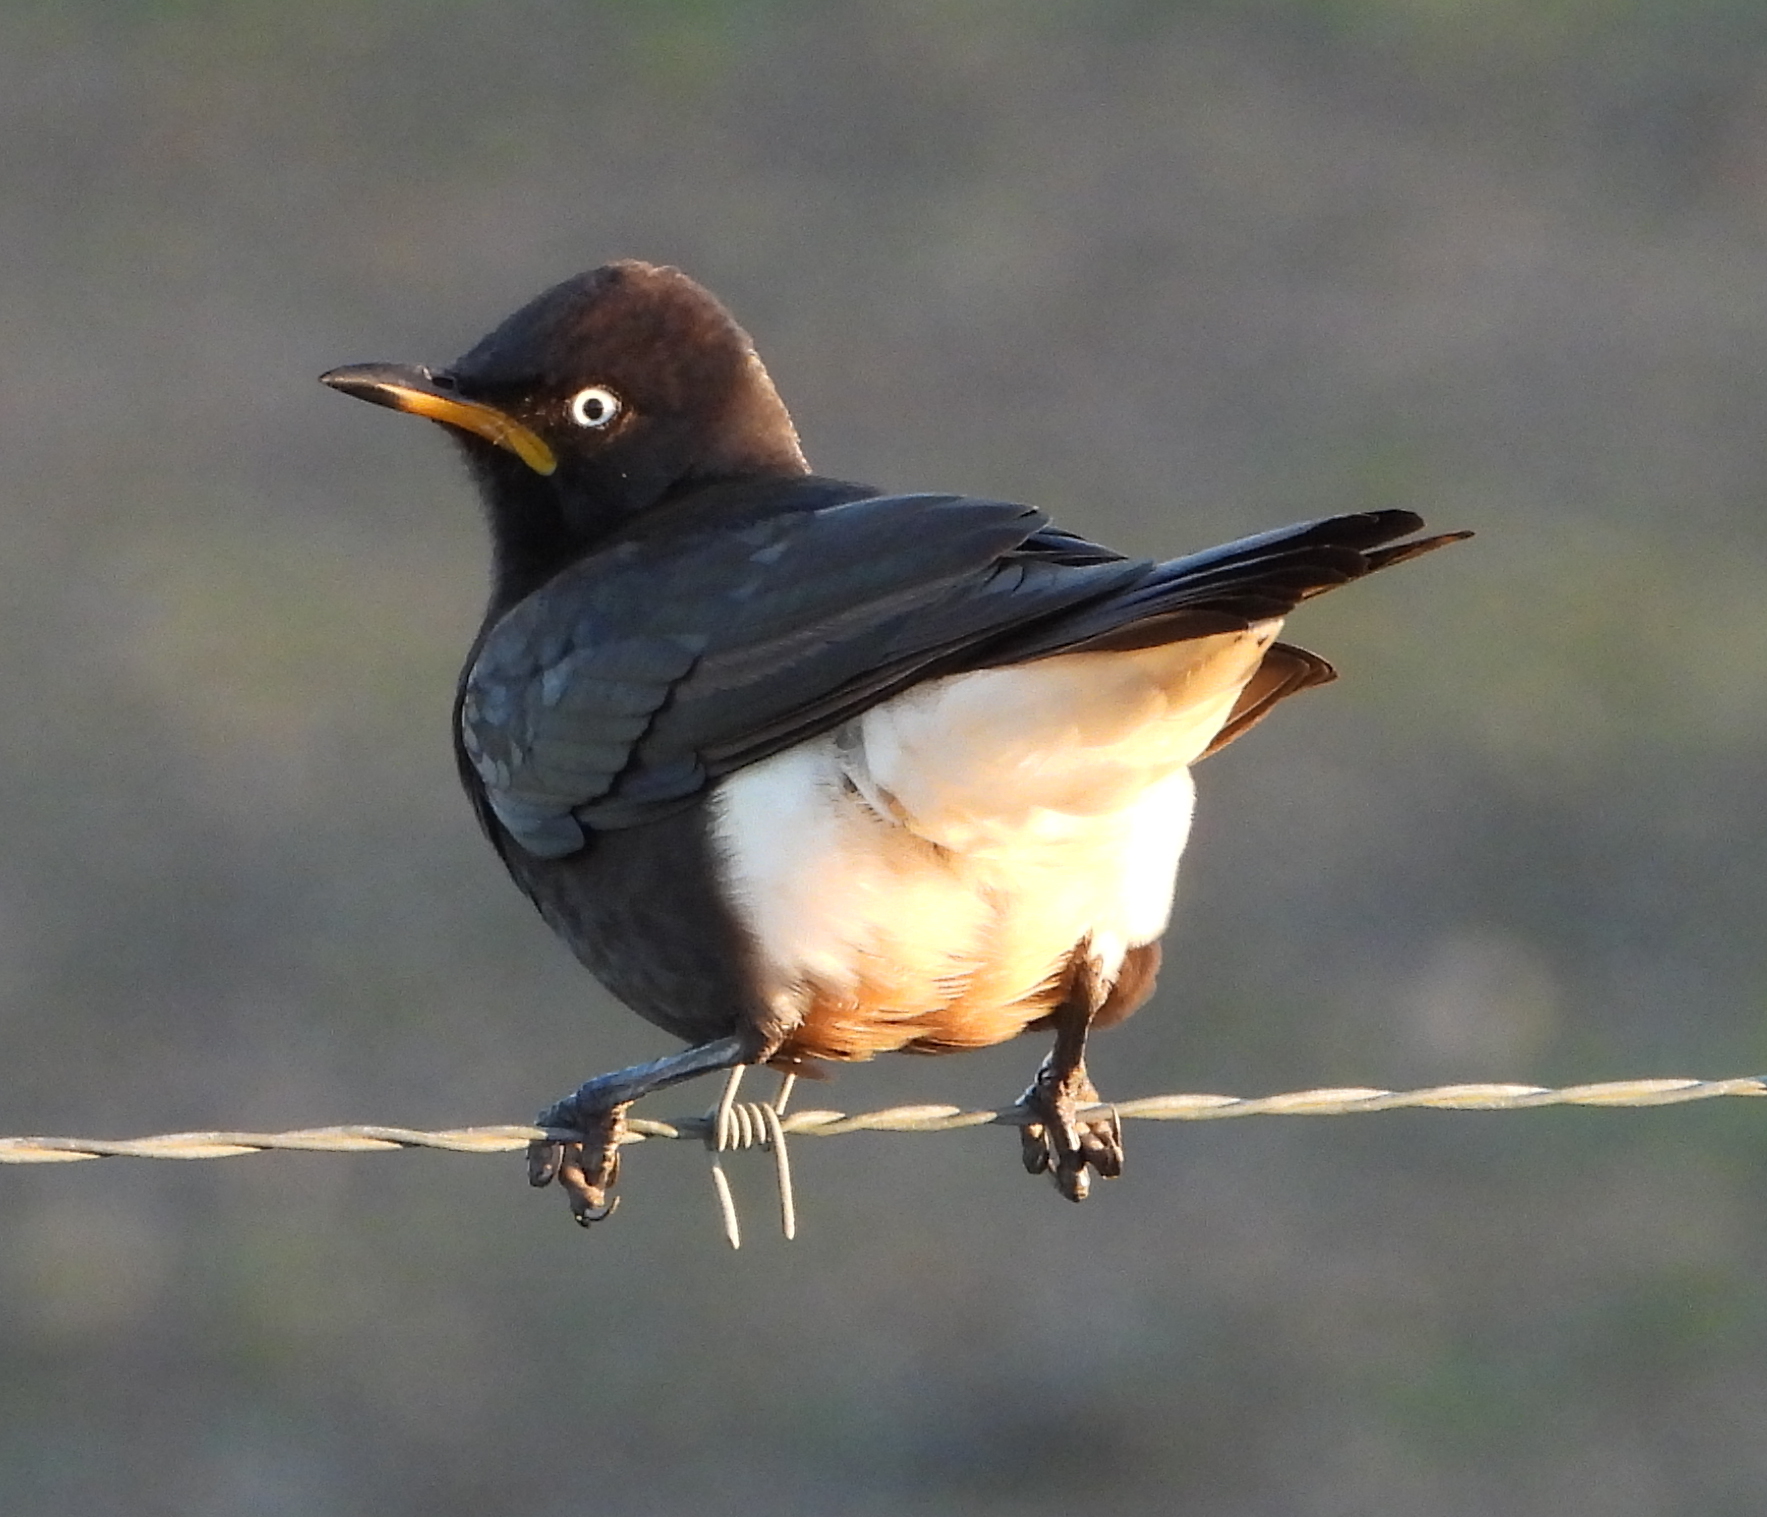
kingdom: Animalia
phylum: Chordata
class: Aves
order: Passeriformes
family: Sturnidae
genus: Lamprotornis
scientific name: Lamprotornis bicolor
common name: Pied starling
